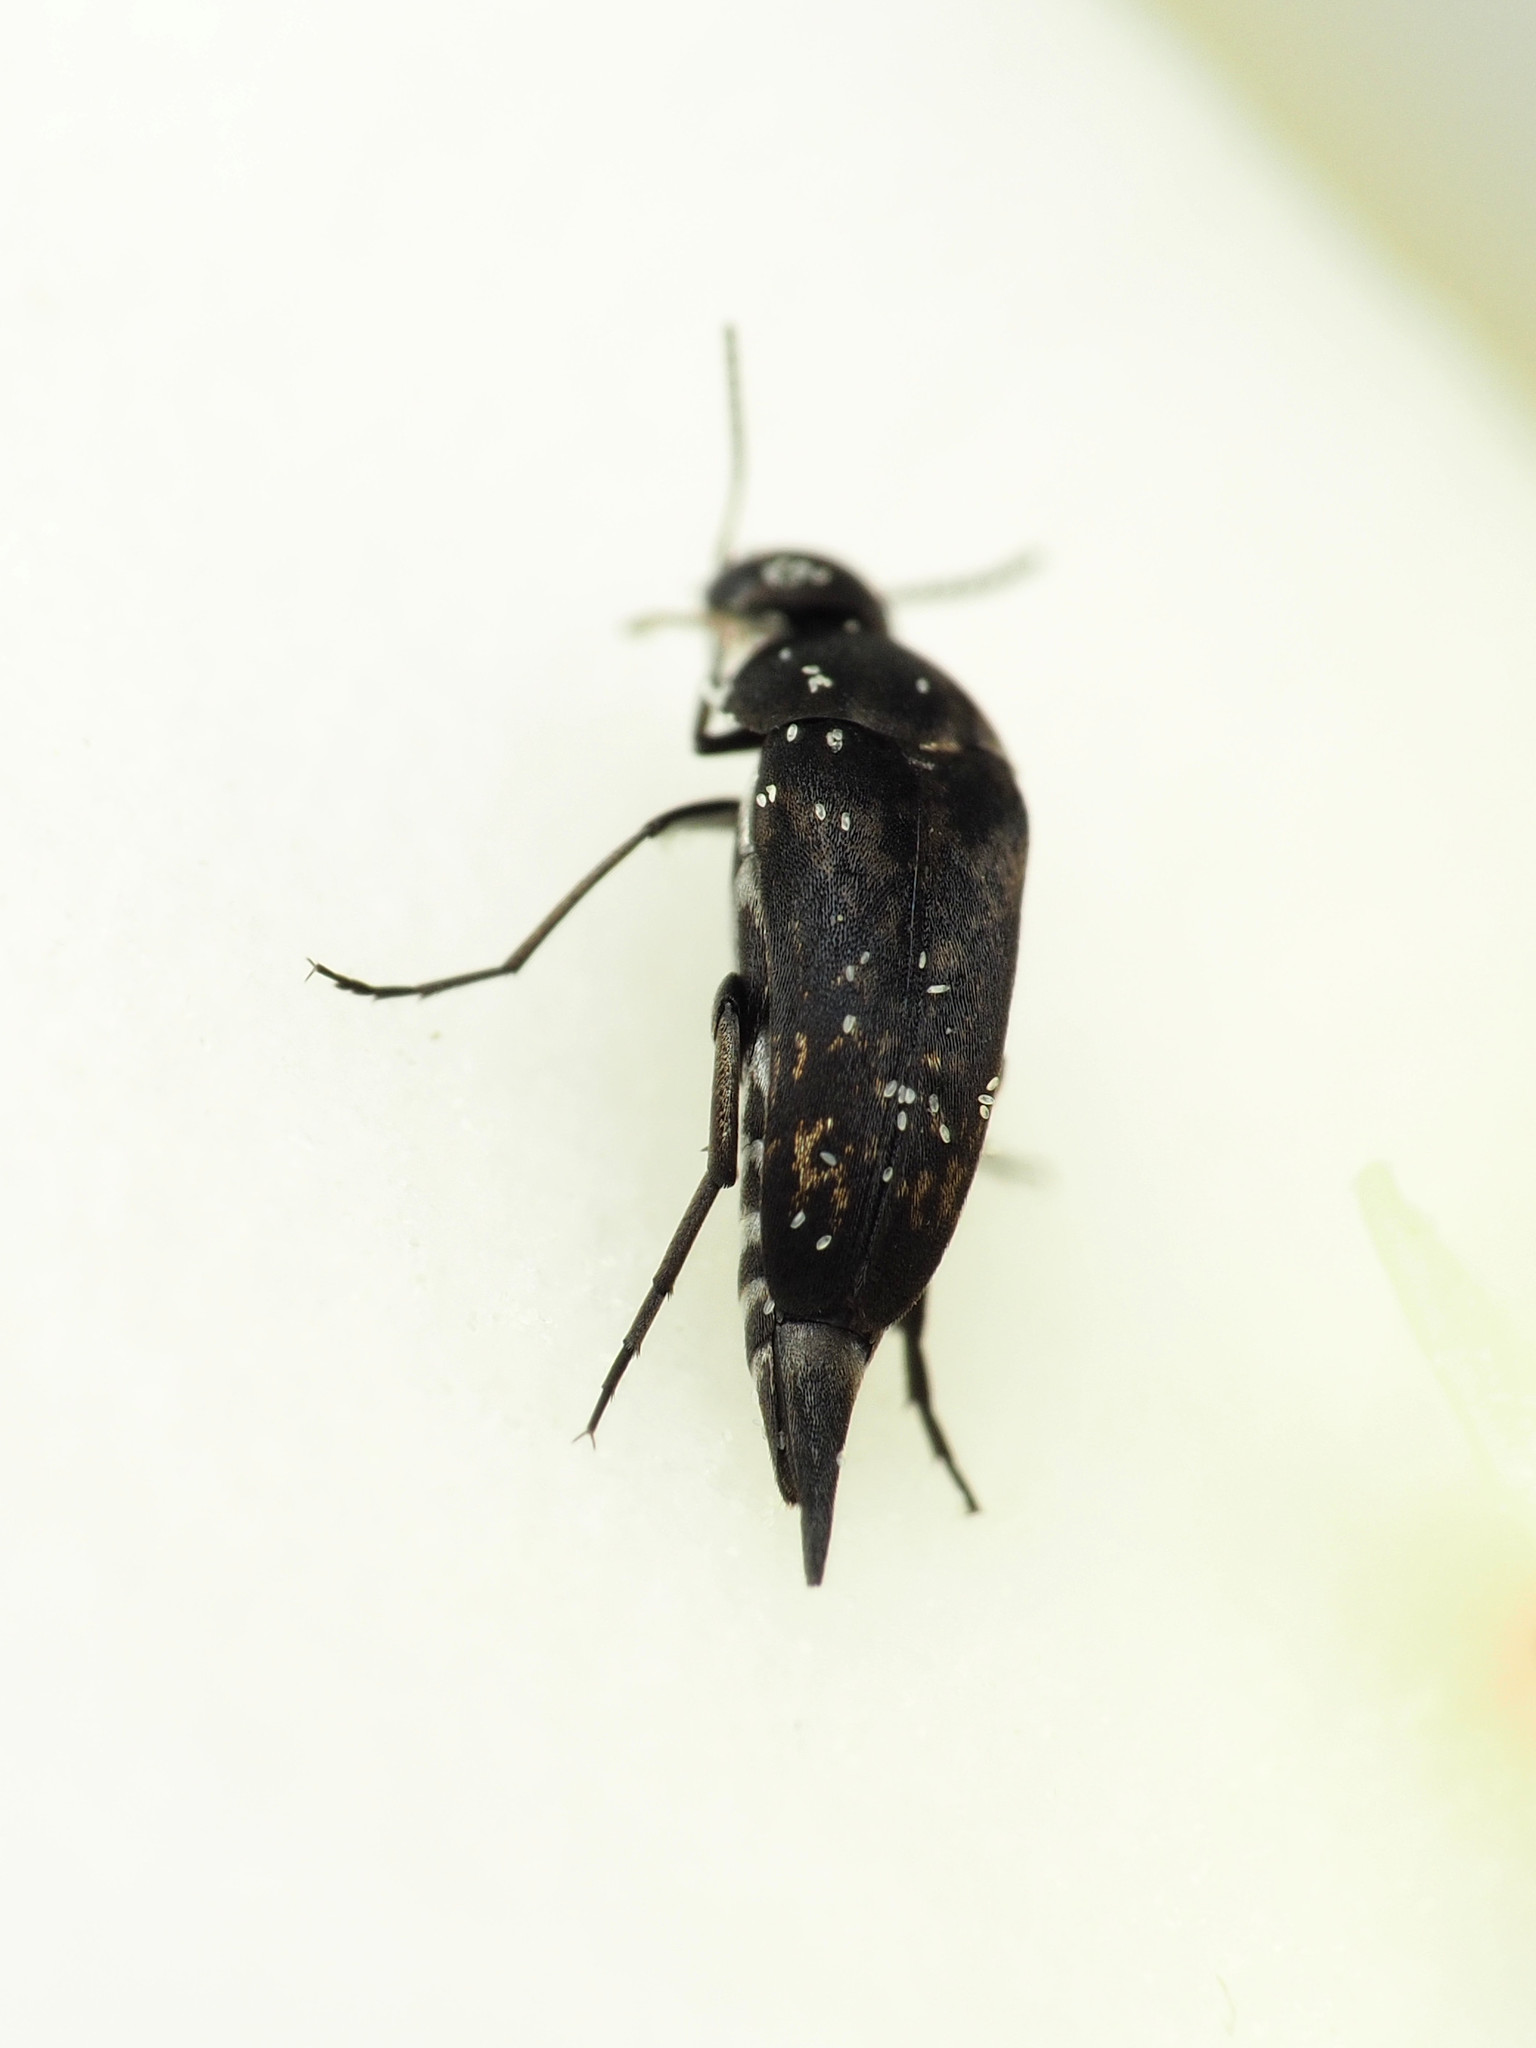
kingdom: Animalia
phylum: Arthropoda
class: Insecta
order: Coleoptera
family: Mordellidae
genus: Mordella
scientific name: Mordella marginata
